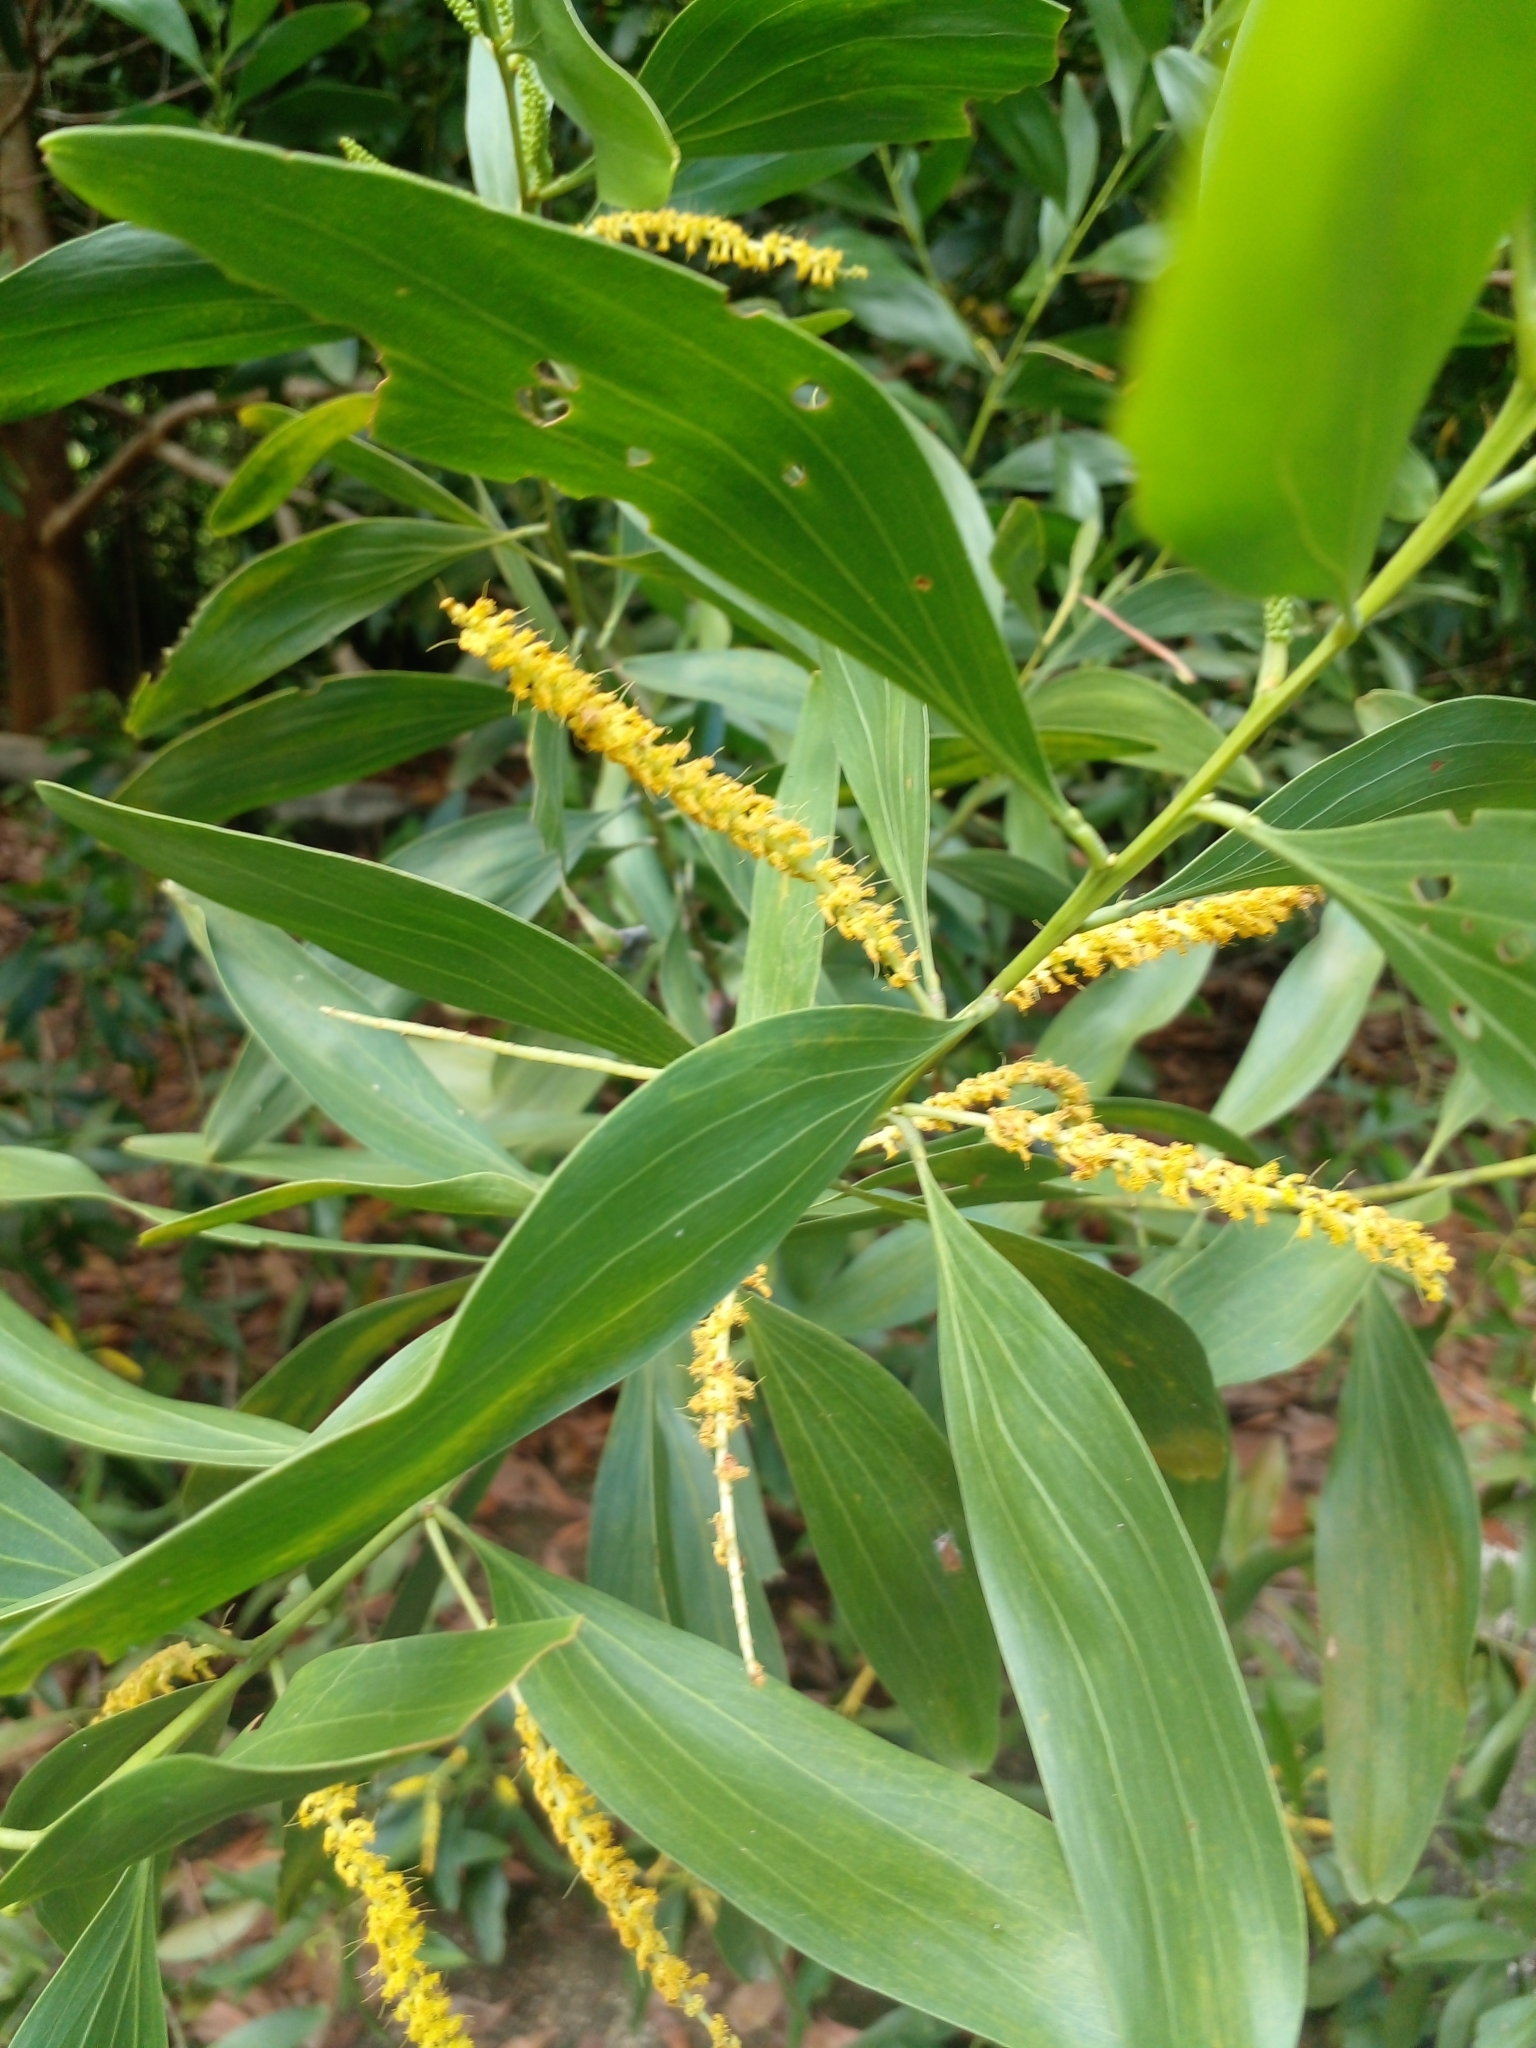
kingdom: Plantae
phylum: Tracheophyta
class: Magnoliopsida
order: Fabales
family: Fabaceae
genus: Acacia
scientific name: Acacia mangium
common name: Black wattle
